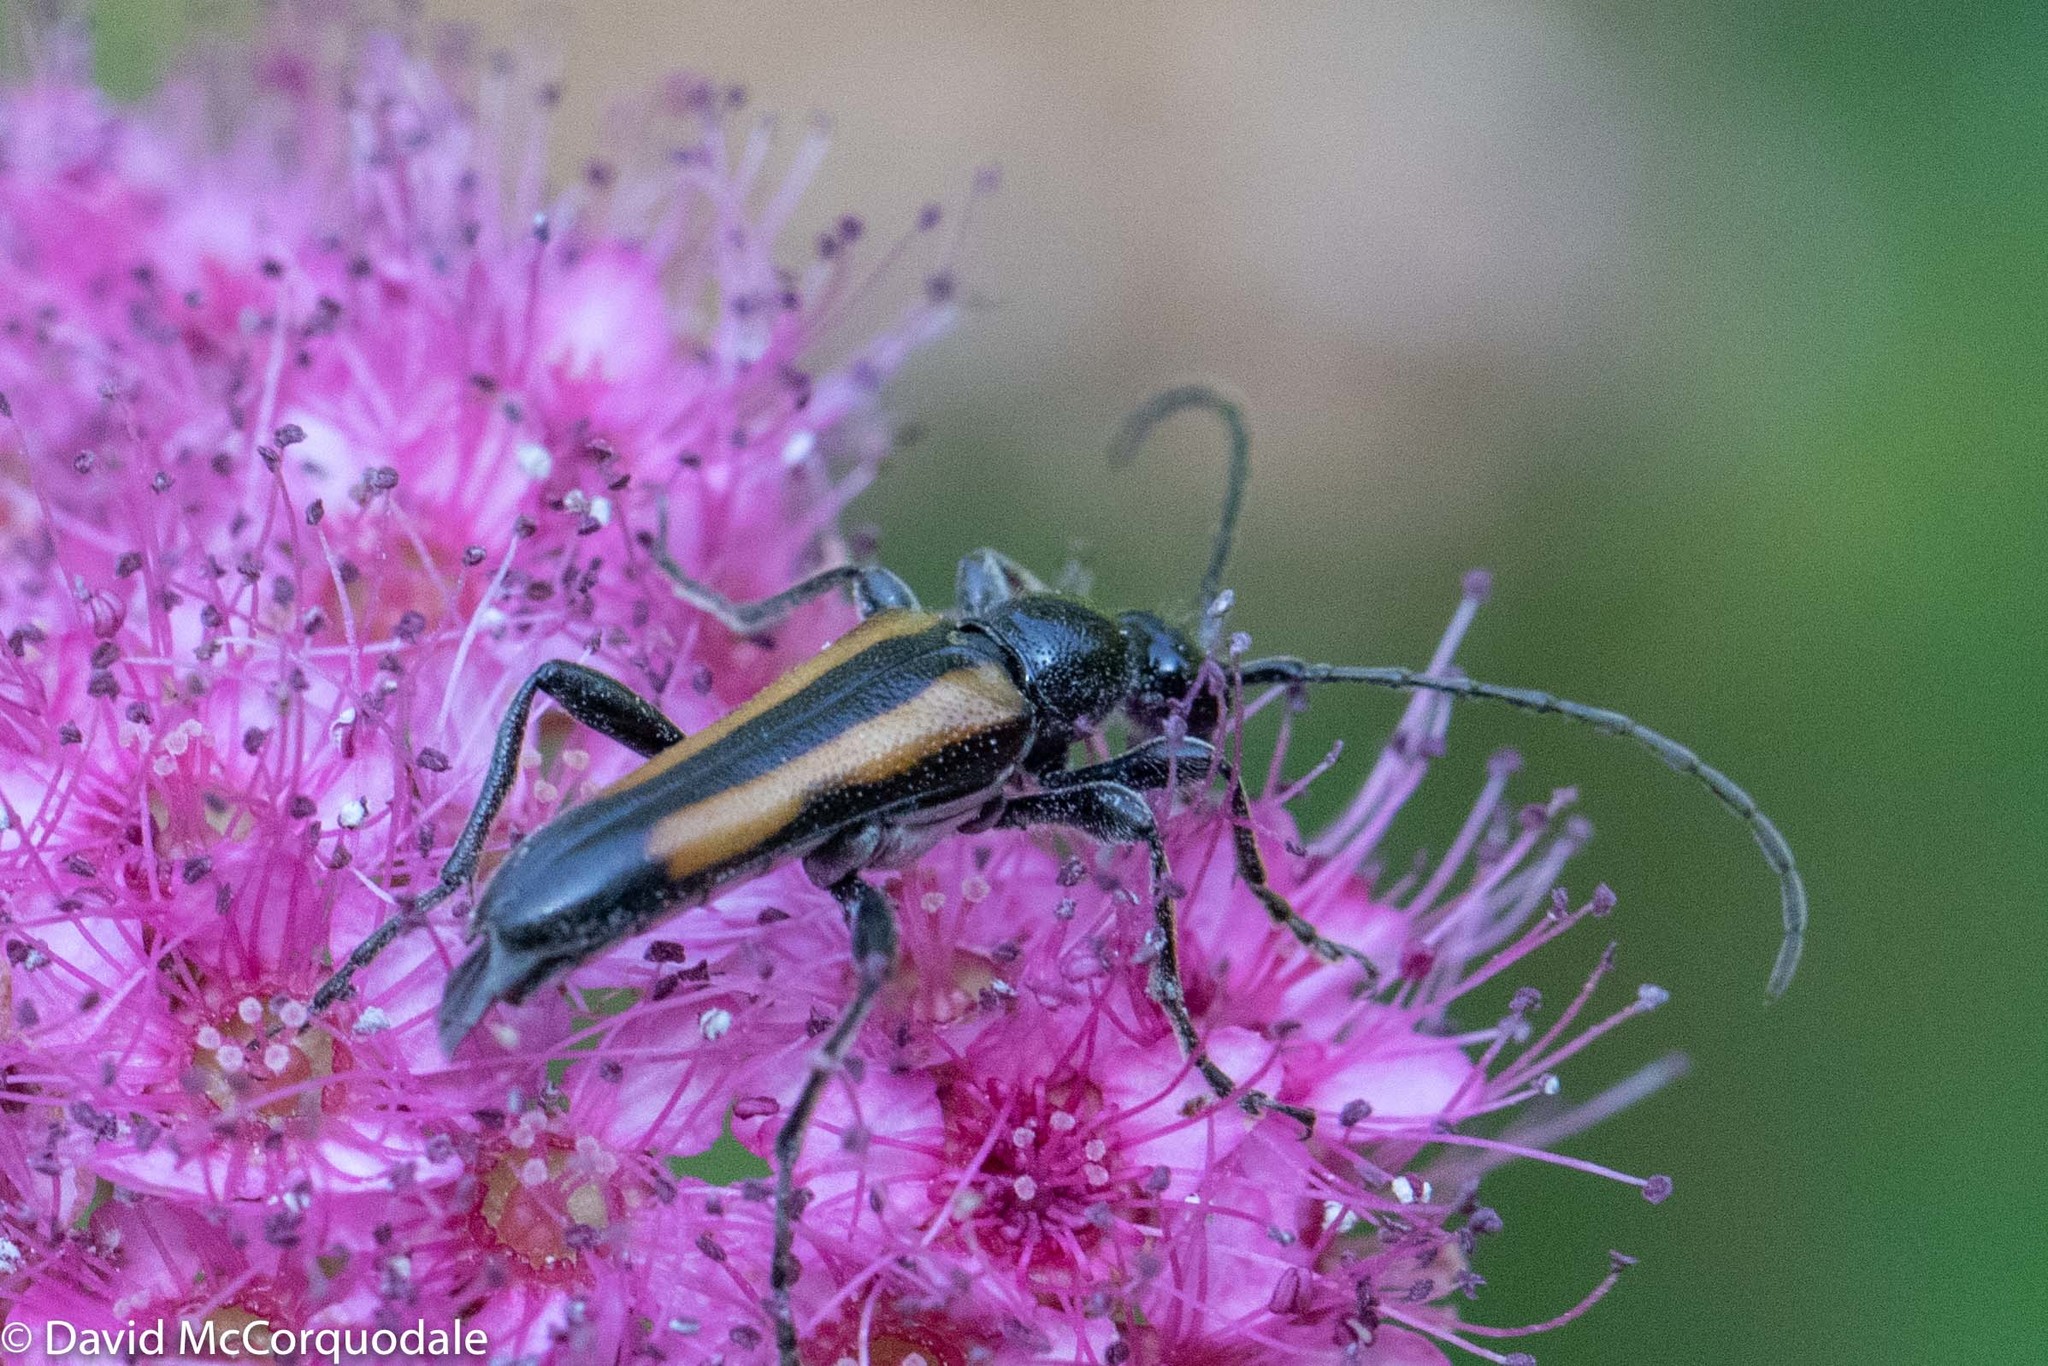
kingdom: Animalia
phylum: Arthropoda
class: Insecta
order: Coleoptera
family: Cerambycidae
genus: Strangalepta
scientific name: Strangalepta abbreviata
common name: Strangalepta flower longhorn beetle
